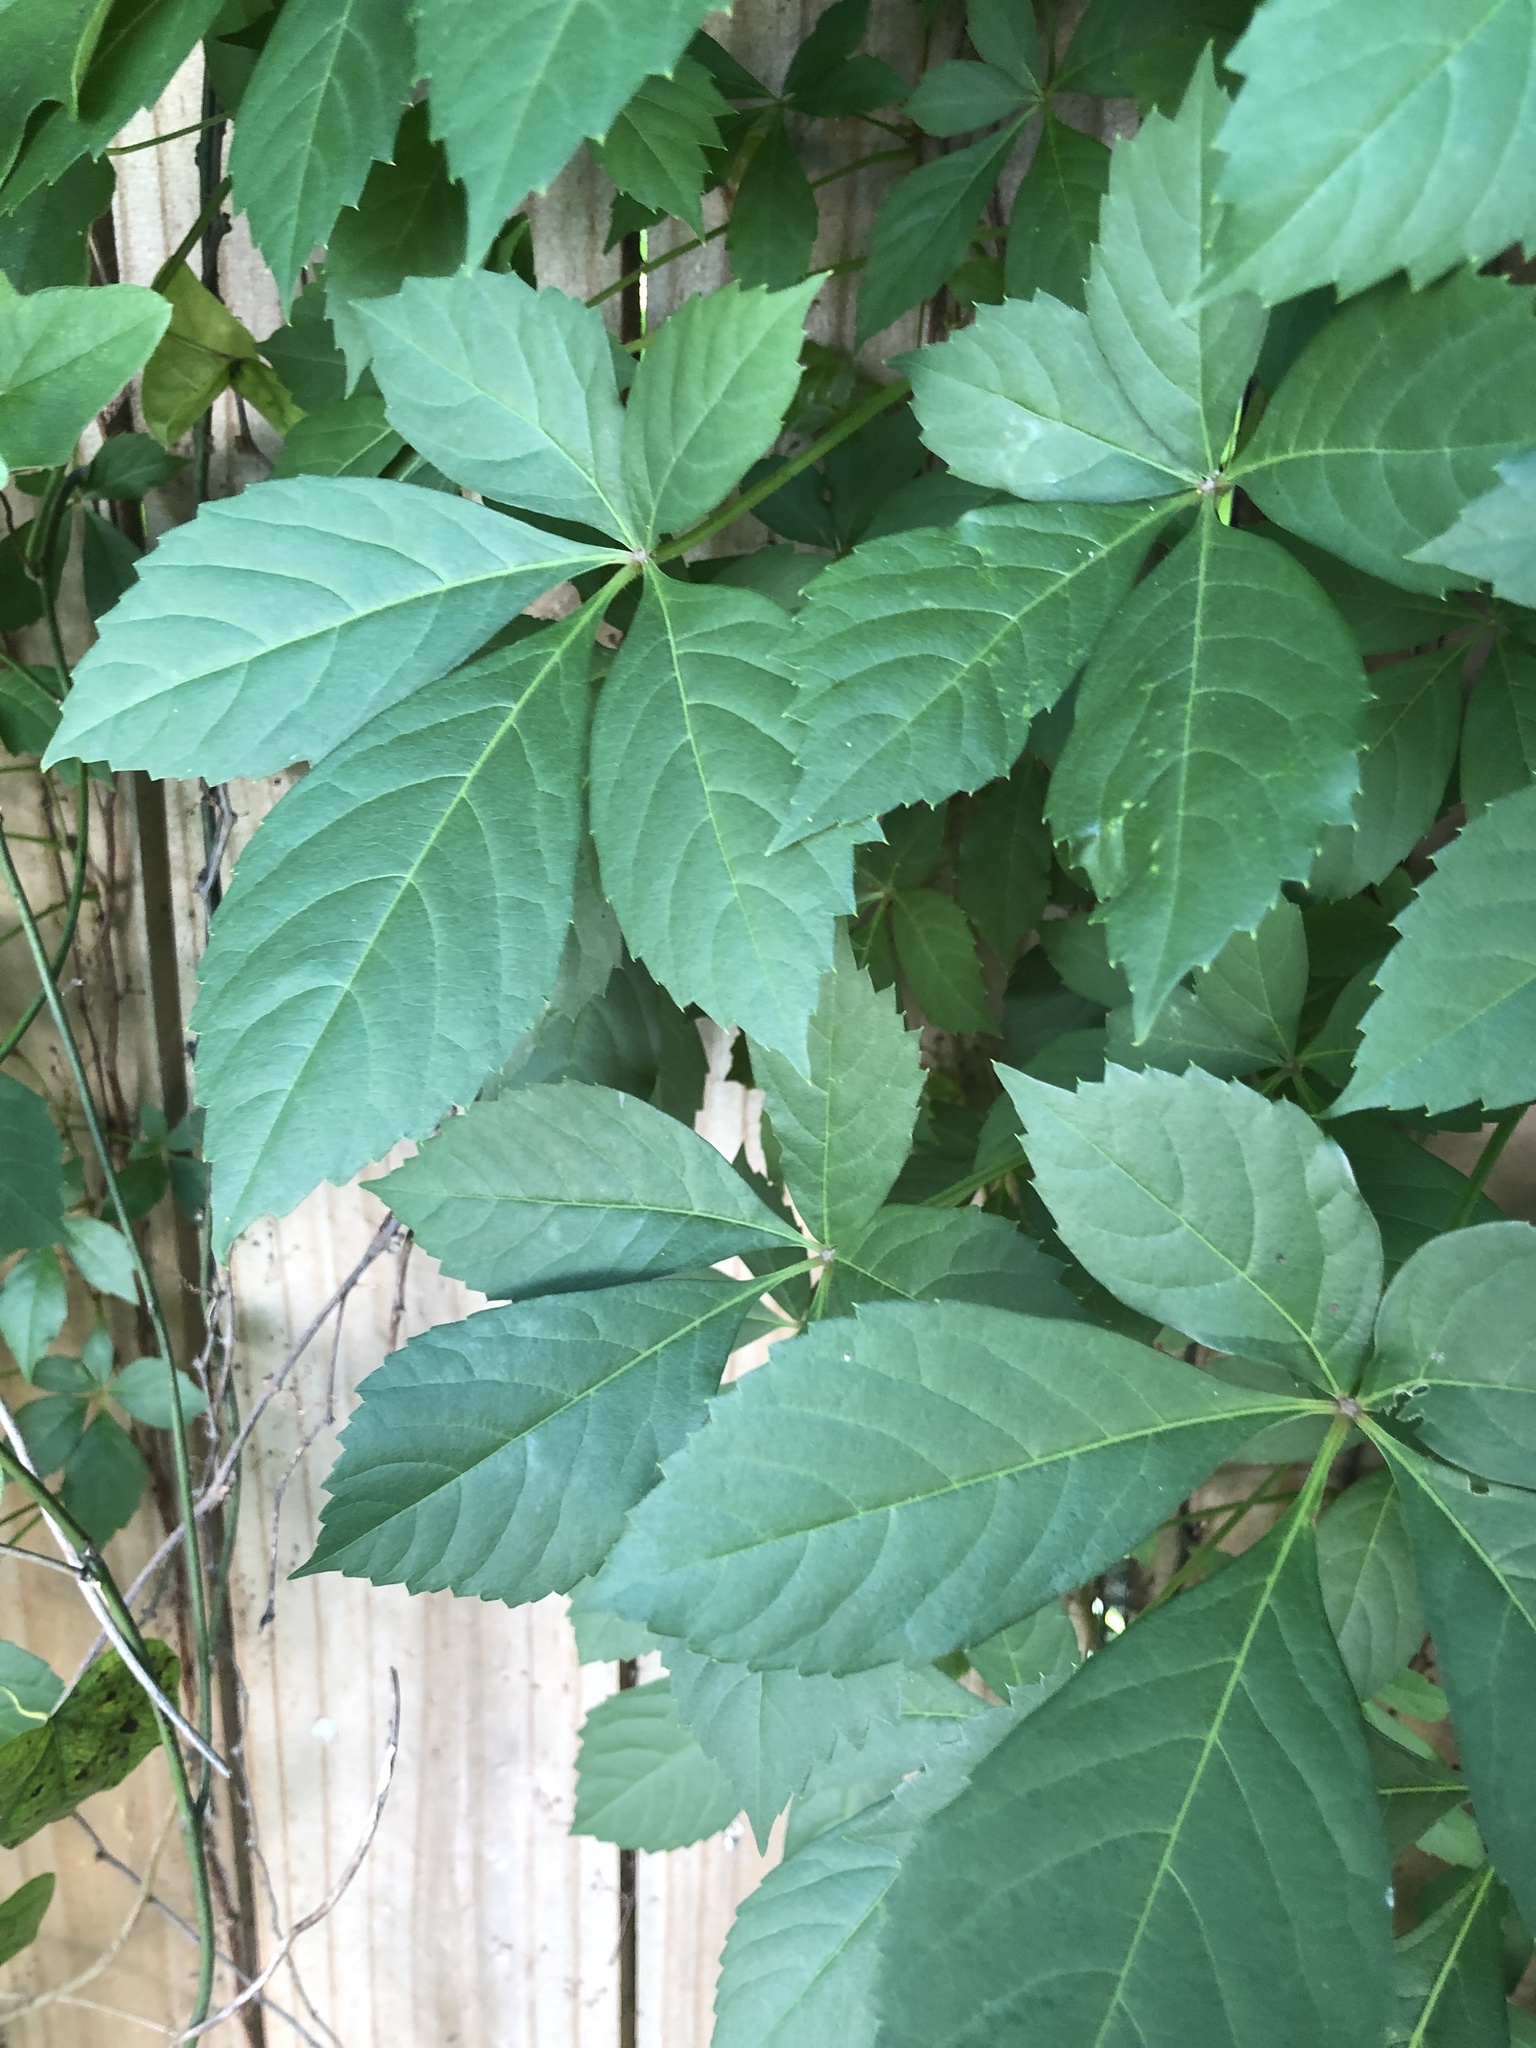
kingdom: Plantae
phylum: Tracheophyta
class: Magnoliopsida
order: Vitales
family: Vitaceae
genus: Parthenocissus
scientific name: Parthenocissus quinquefolia
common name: Virginia-creeper
